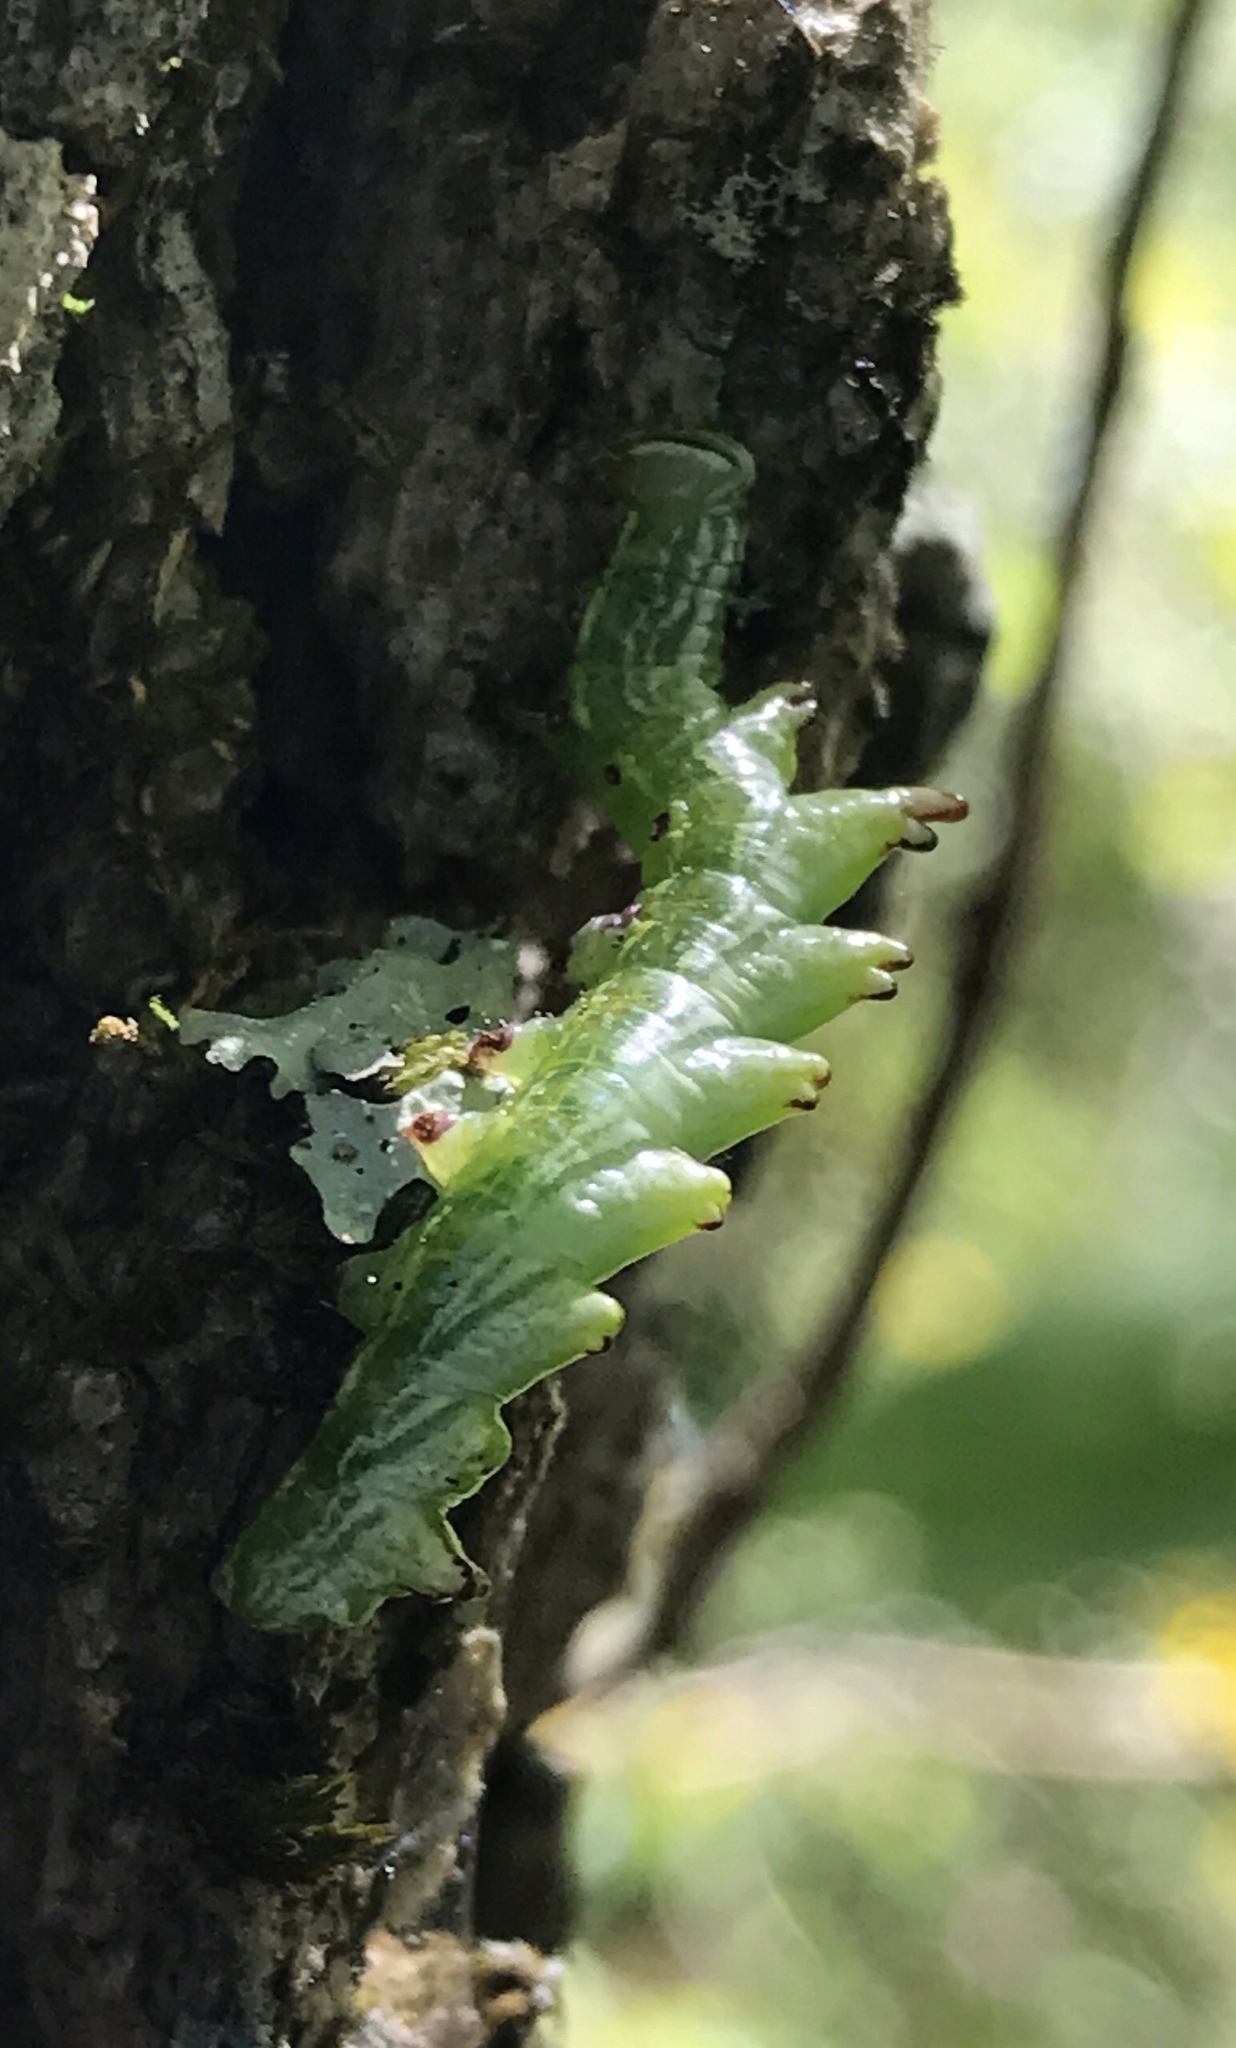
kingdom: Animalia
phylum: Arthropoda
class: Insecta
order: Lepidoptera
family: Notodontidae
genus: Nerice
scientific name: Nerice bidentata
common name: Double-toothed prominent
